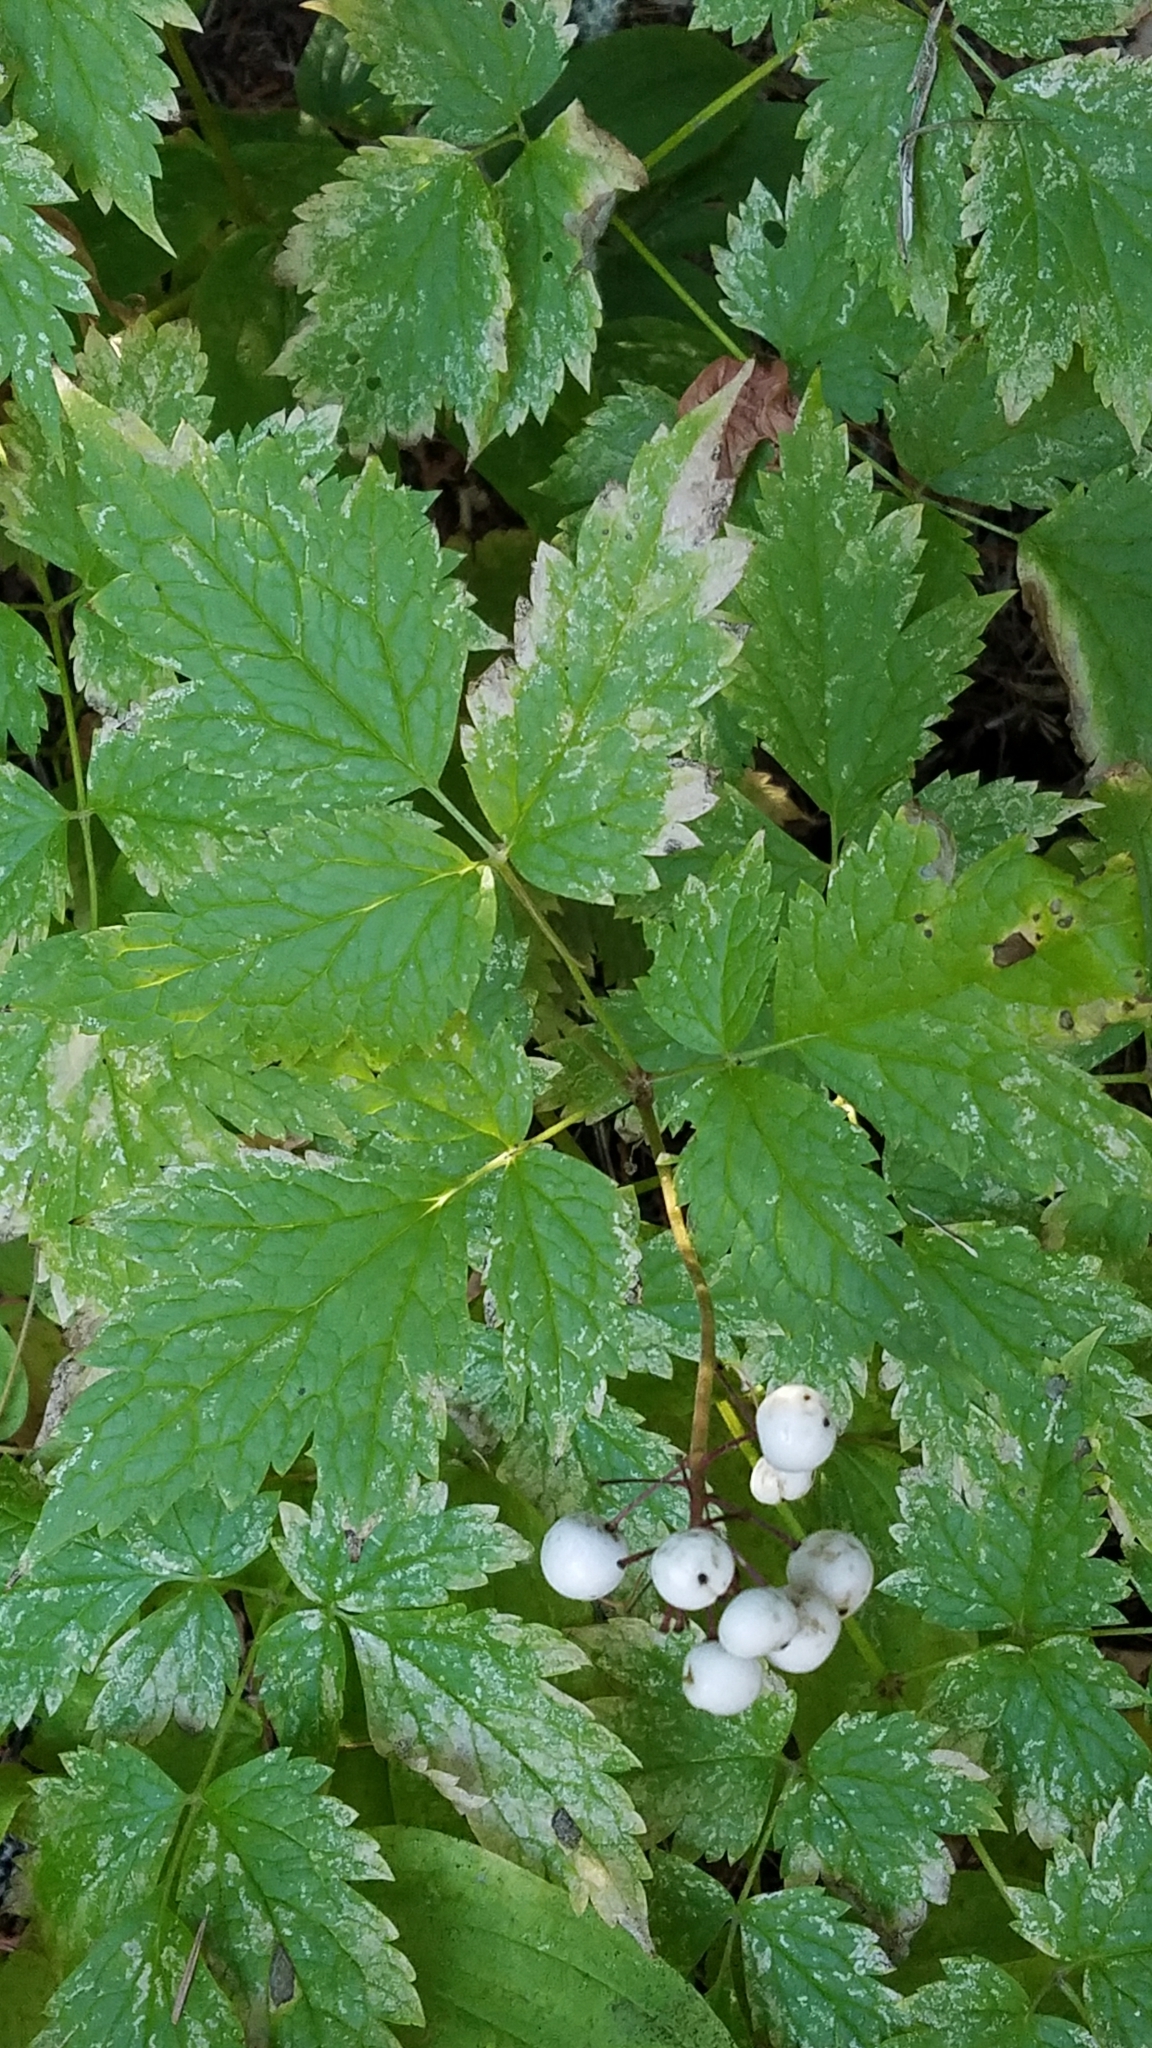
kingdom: Plantae
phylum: Tracheophyta
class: Magnoliopsida
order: Ranunculales
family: Ranunculaceae
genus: Actaea
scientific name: Actaea rubra
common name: Red baneberry
